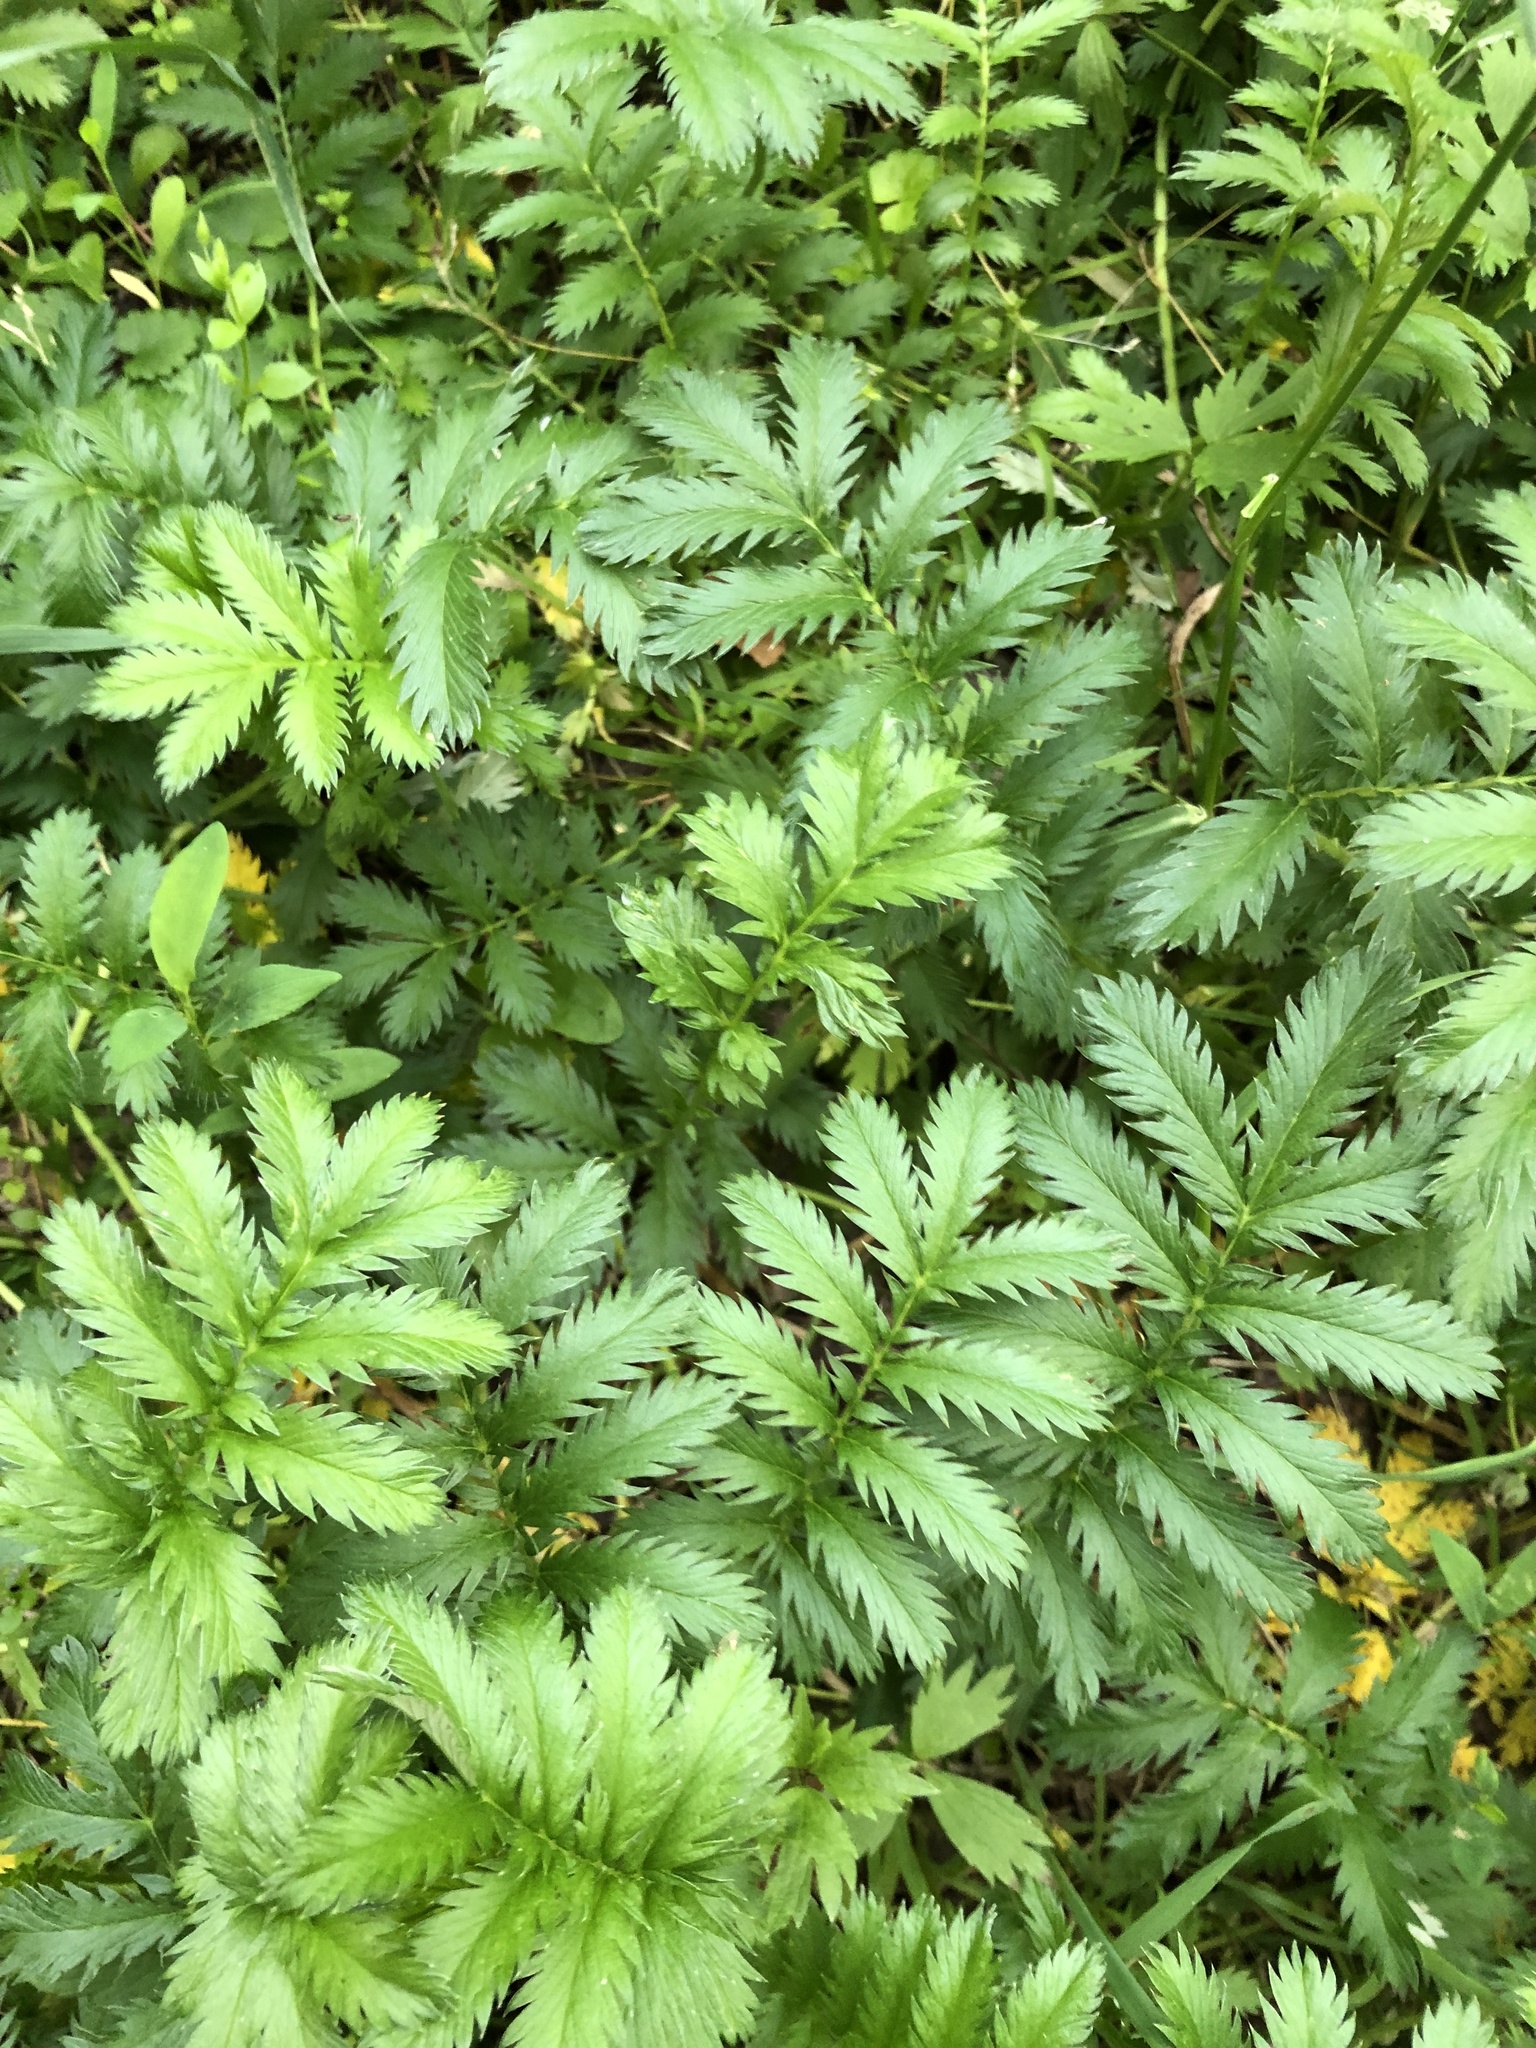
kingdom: Plantae
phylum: Tracheophyta
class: Magnoliopsida
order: Rosales
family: Rosaceae
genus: Argentina
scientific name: Argentina anserina
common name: Common silverweed
